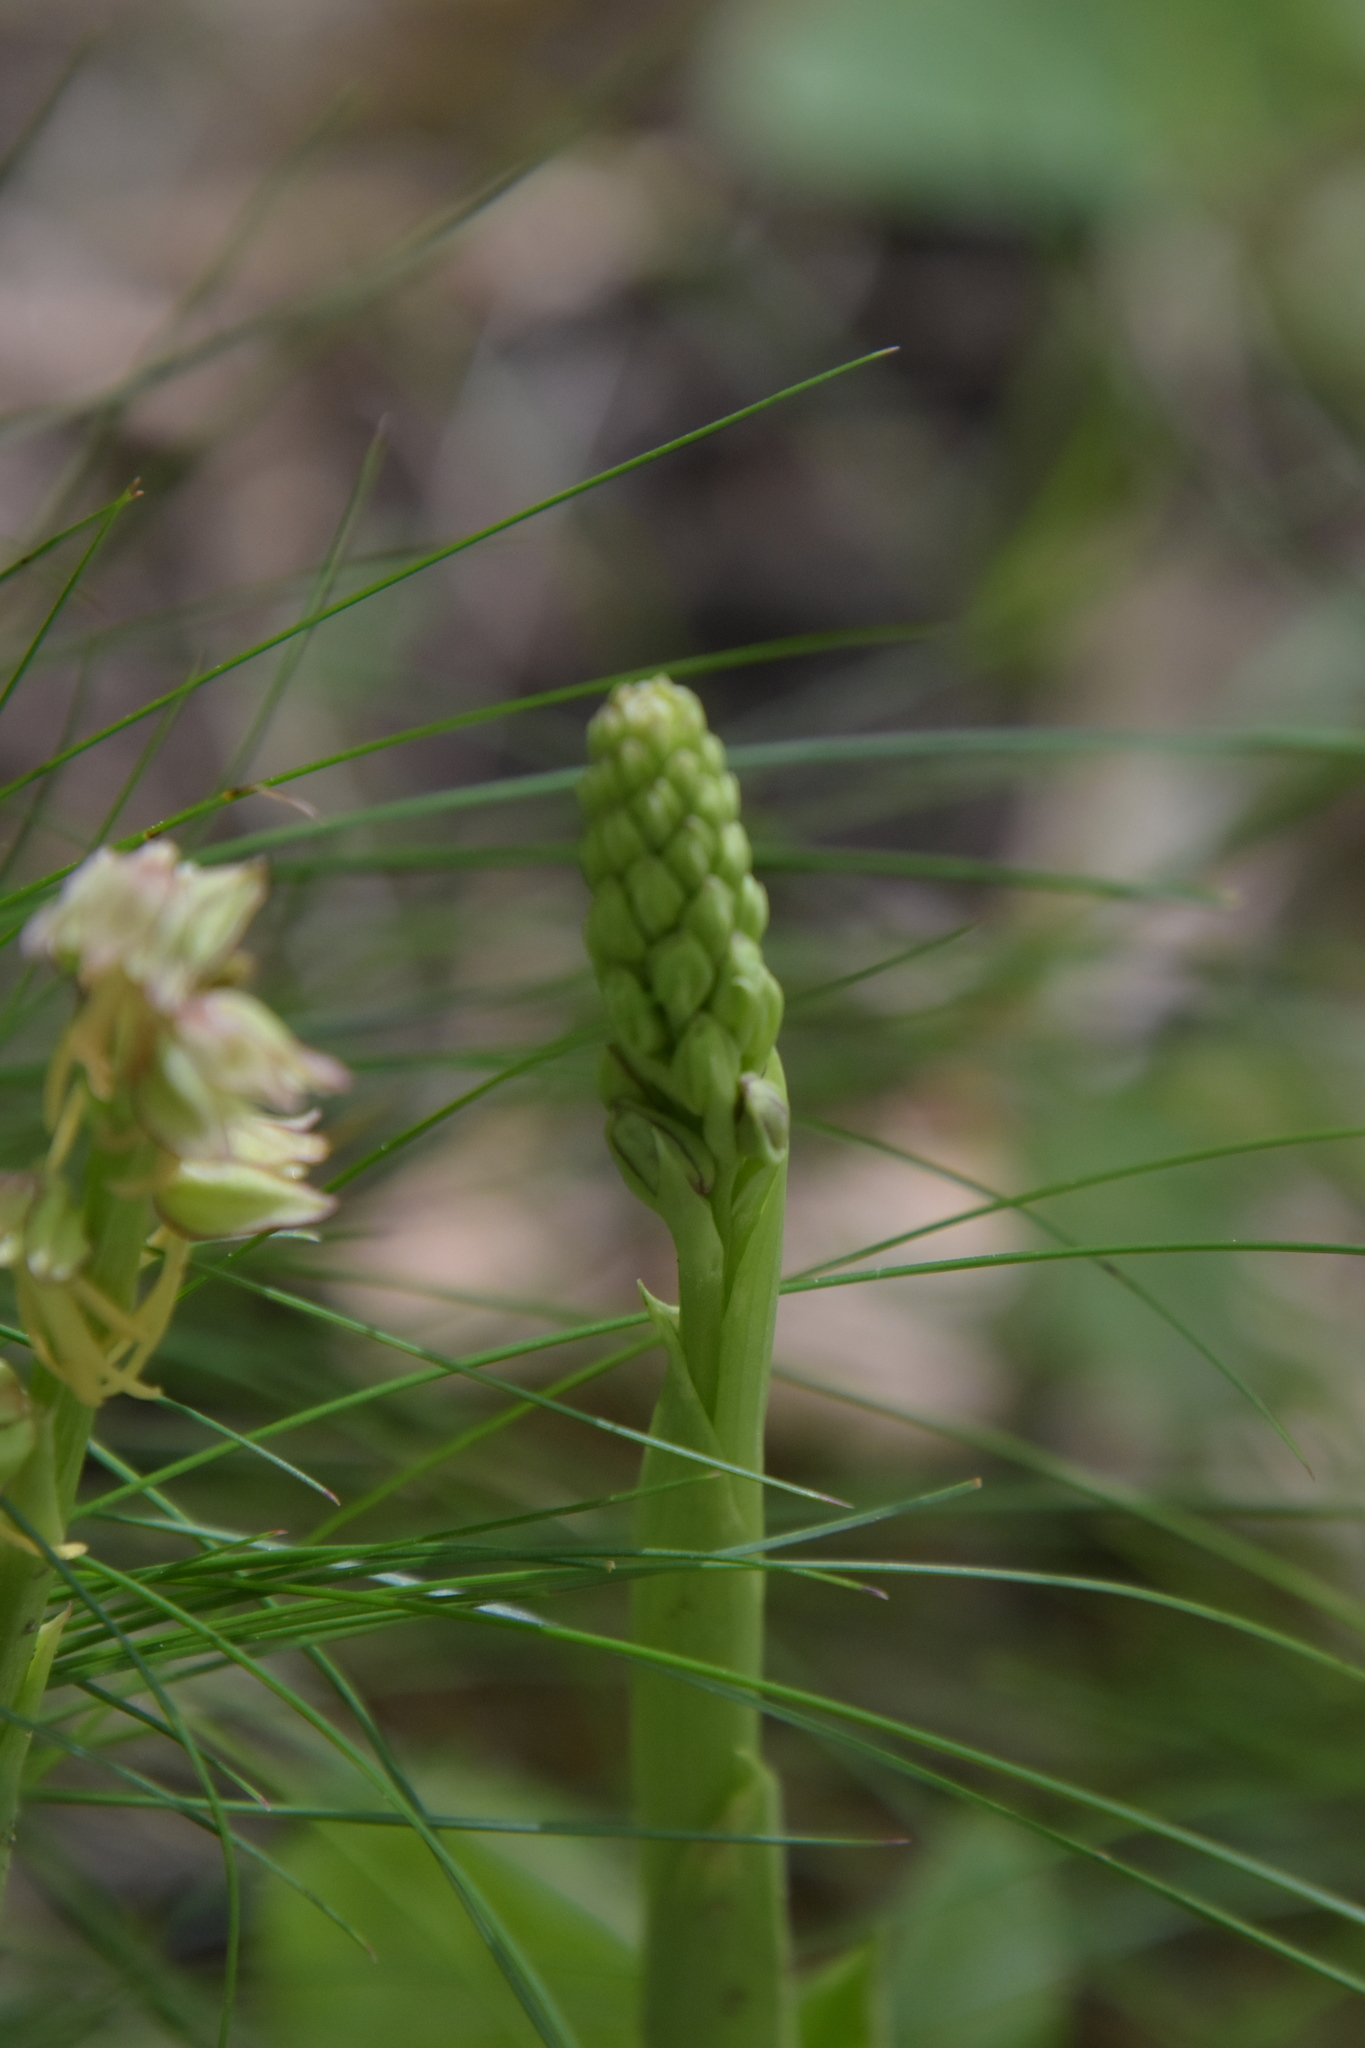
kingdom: Plantae
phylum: Tracheophyta
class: Liliopsida
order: Asparagales
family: Orchidaceae
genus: Orchis
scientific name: Orchis anthropophora
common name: Man orchid
